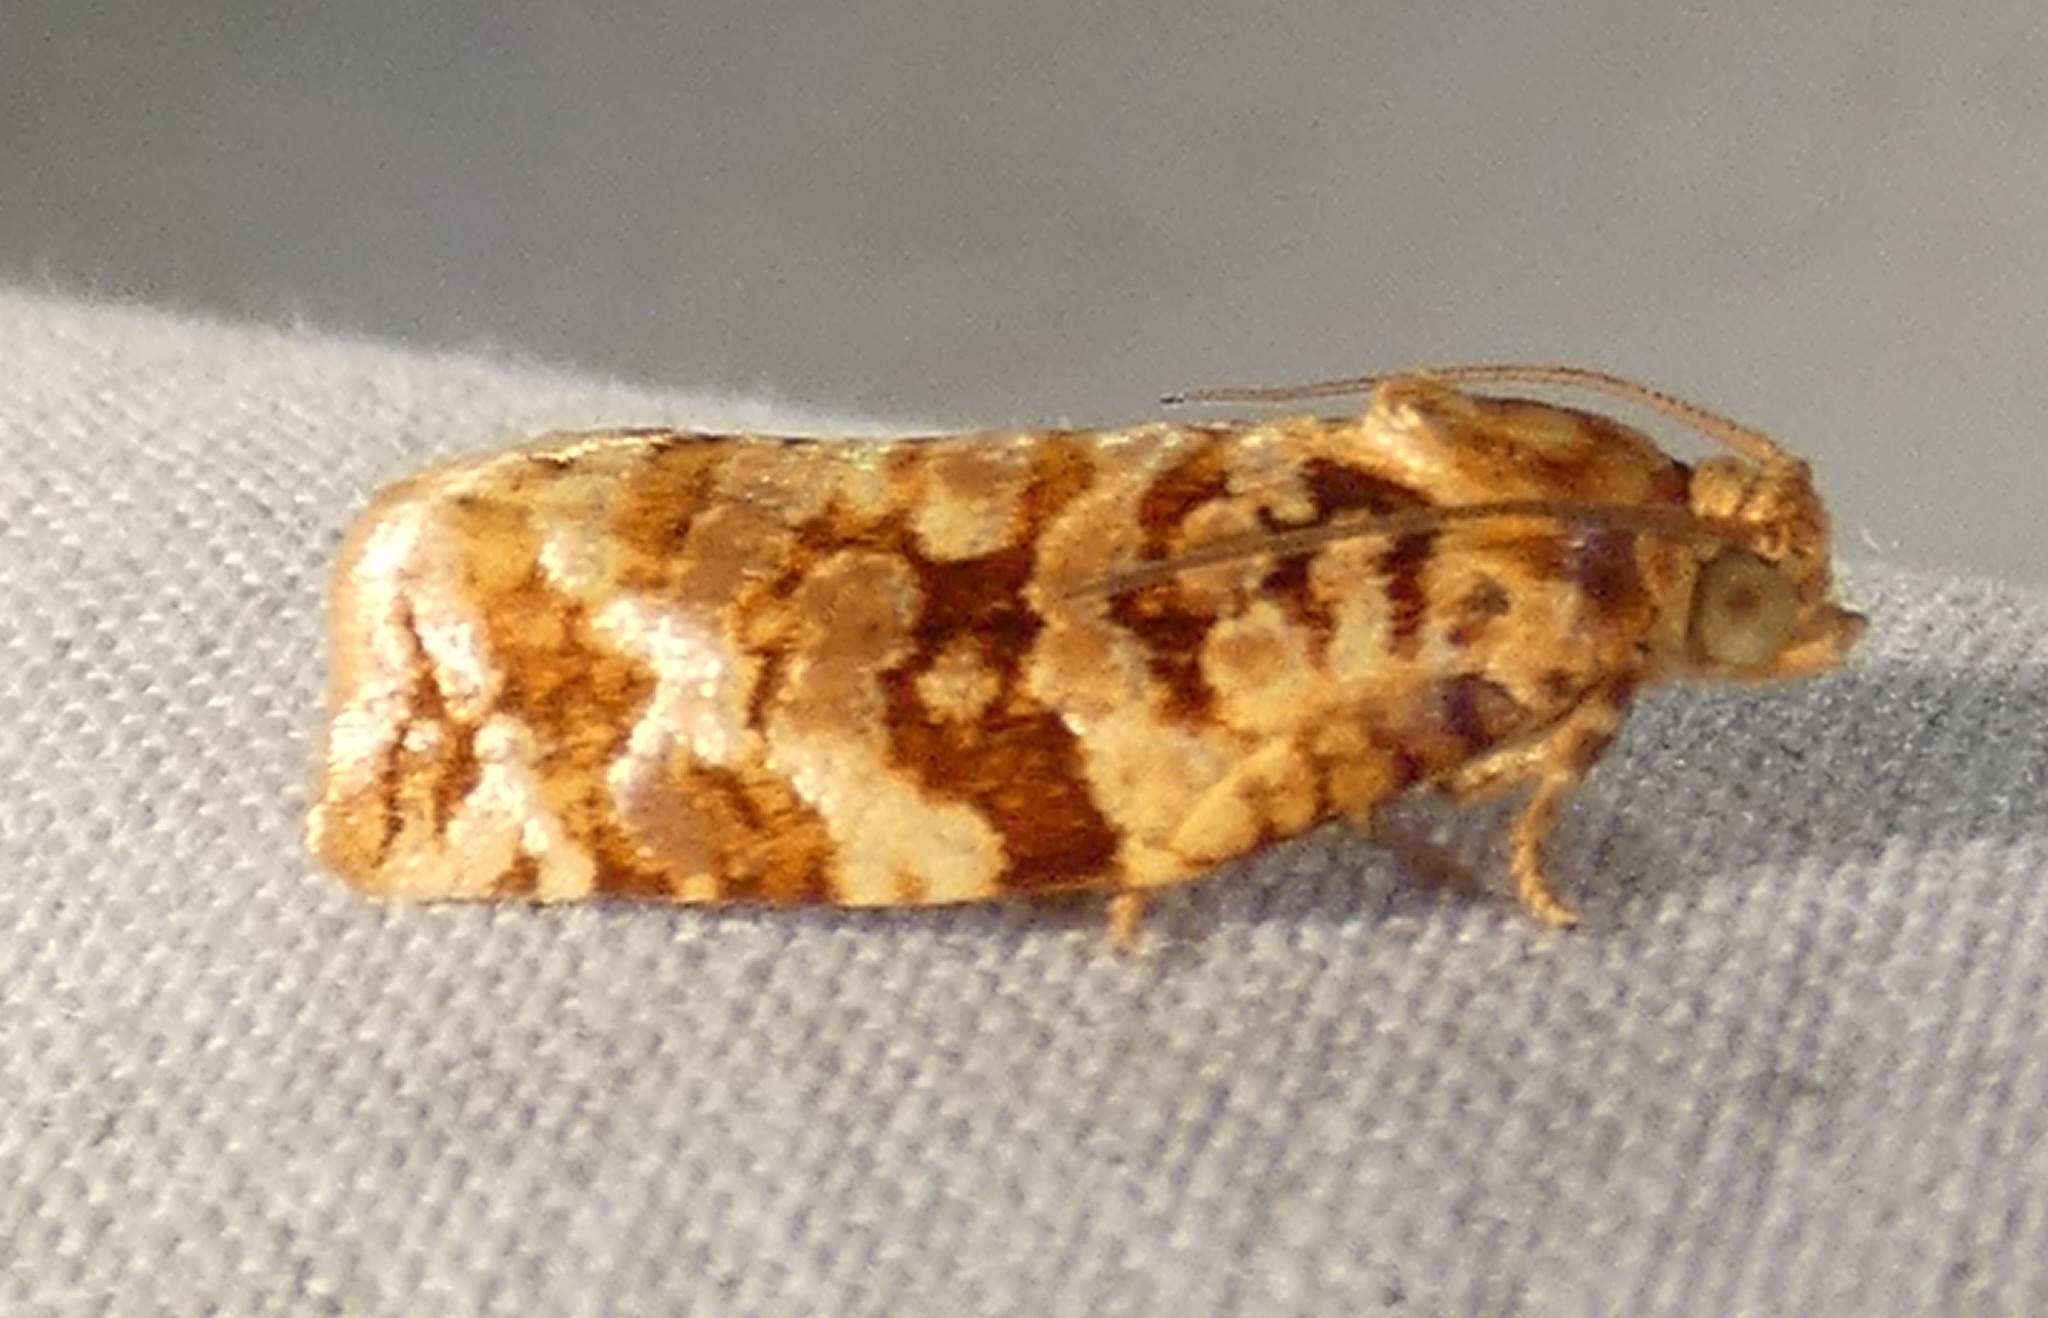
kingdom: Animalia
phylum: Arthropoda
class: Insecta
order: Lepidoptera
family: Tortricidae
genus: Archips
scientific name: Archips argyrospila
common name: Fruit-tree leafroller moth
